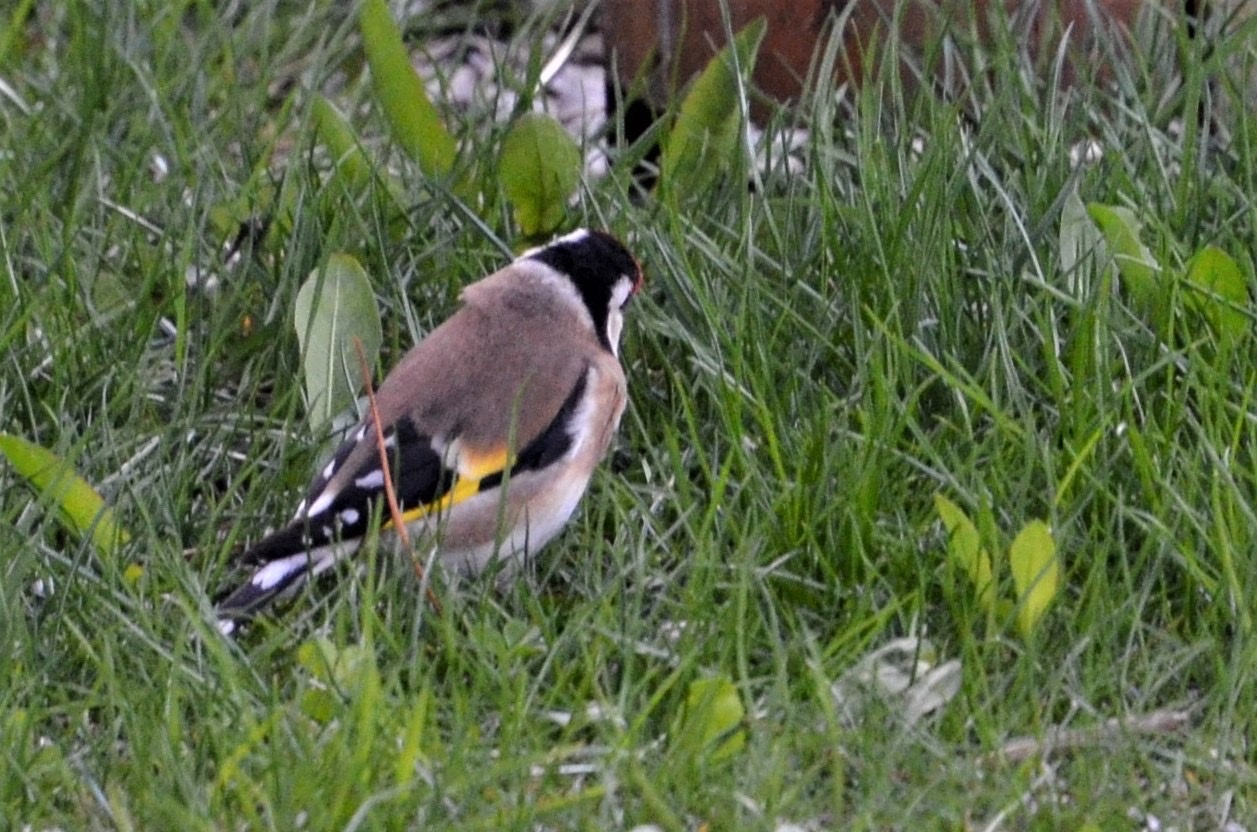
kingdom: Animalia
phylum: Chordata
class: Aves
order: Passeriformes
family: Fringillidae
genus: Carduelis
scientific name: Carduelis carduelis
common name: European goldfinch
